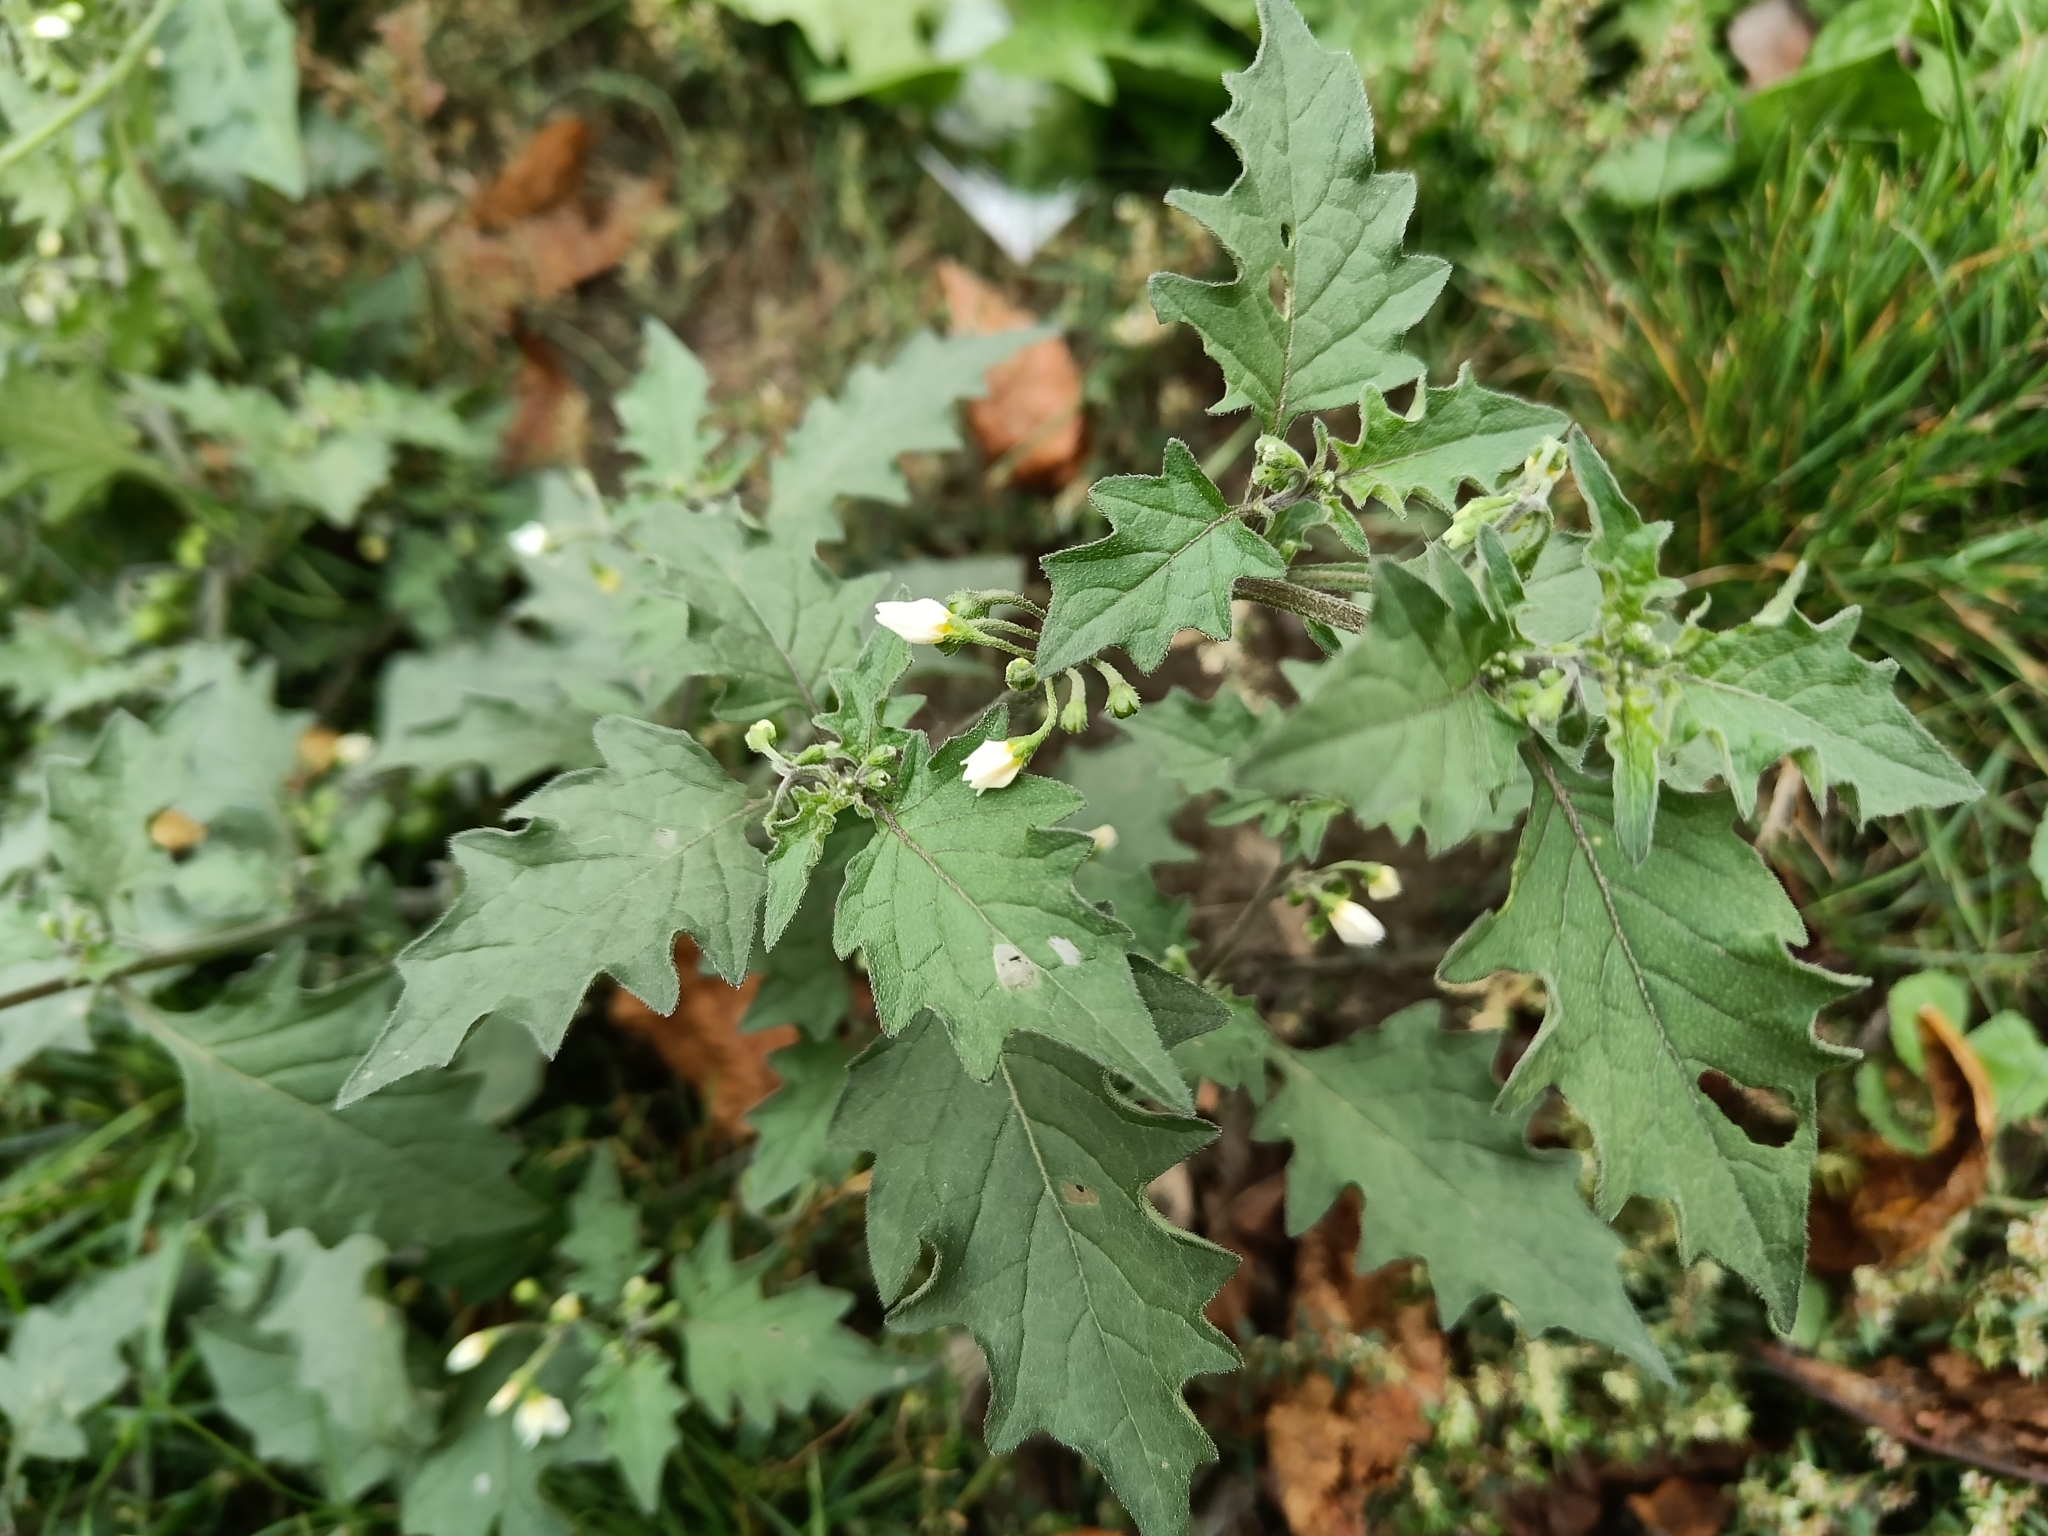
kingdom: Plantae
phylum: Tracheophyta
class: Magnoliopsida
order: Solanales
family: Solanaceae
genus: Solanum
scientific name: Solanum nigrum
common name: Black nightshade
